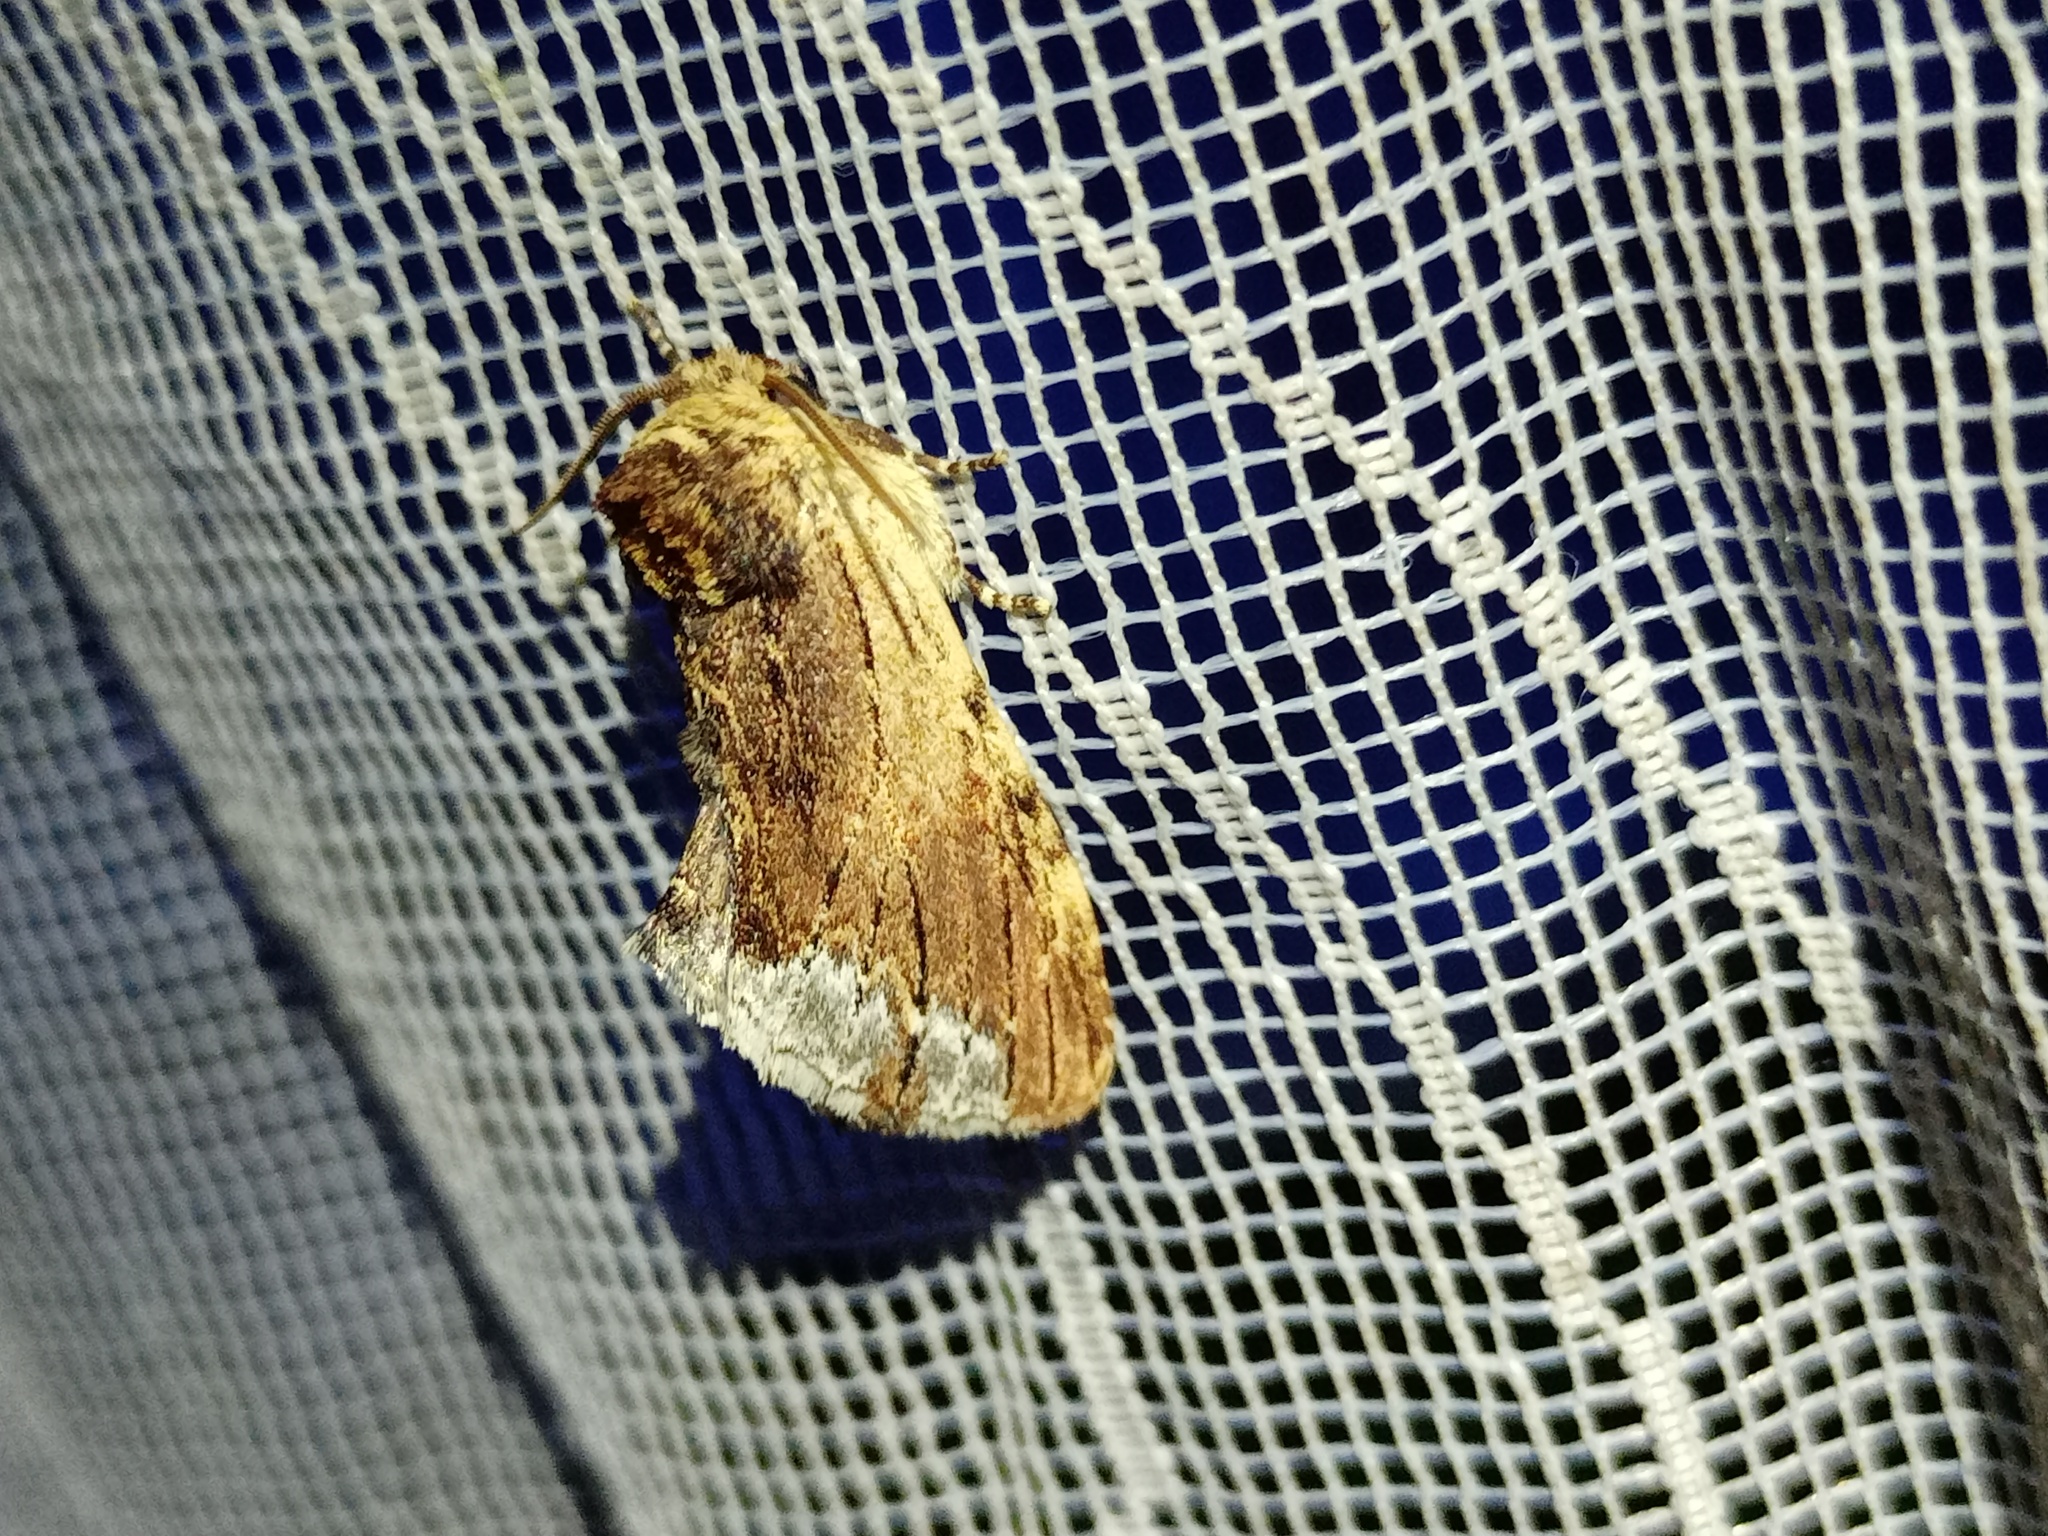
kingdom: Animalia
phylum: Arthropoda
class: Insecta
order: Lepidoptera
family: Notodontidae
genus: Ptilodon
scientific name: Ptilodon cucullina
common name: Maple prominent
